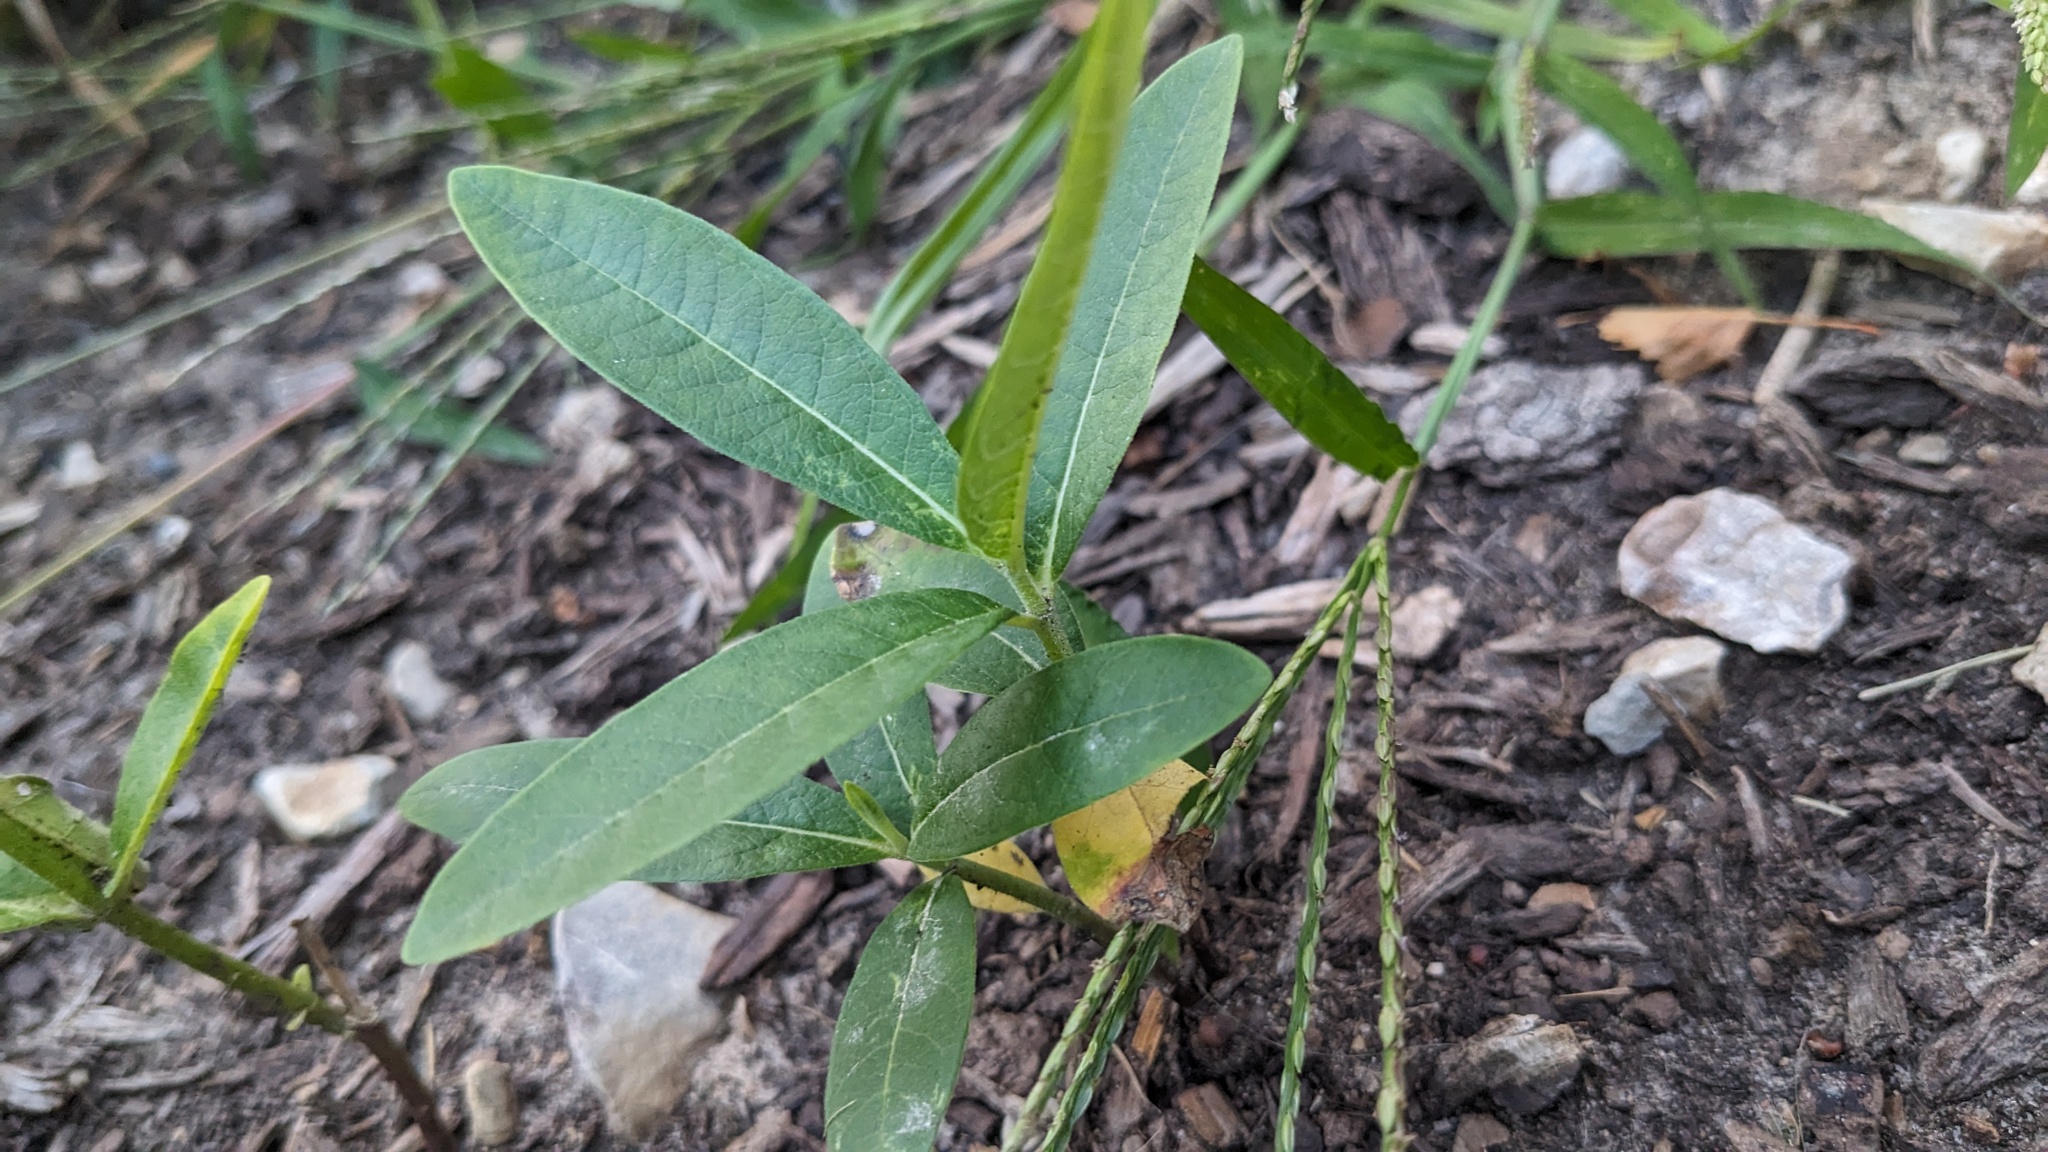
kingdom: Plantae
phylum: Tracheophyta
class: Magnoliopsida
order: Gentianales
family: Apocynaceae
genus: Asclepias
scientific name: Asclepias syriaca
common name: Common milkweed
